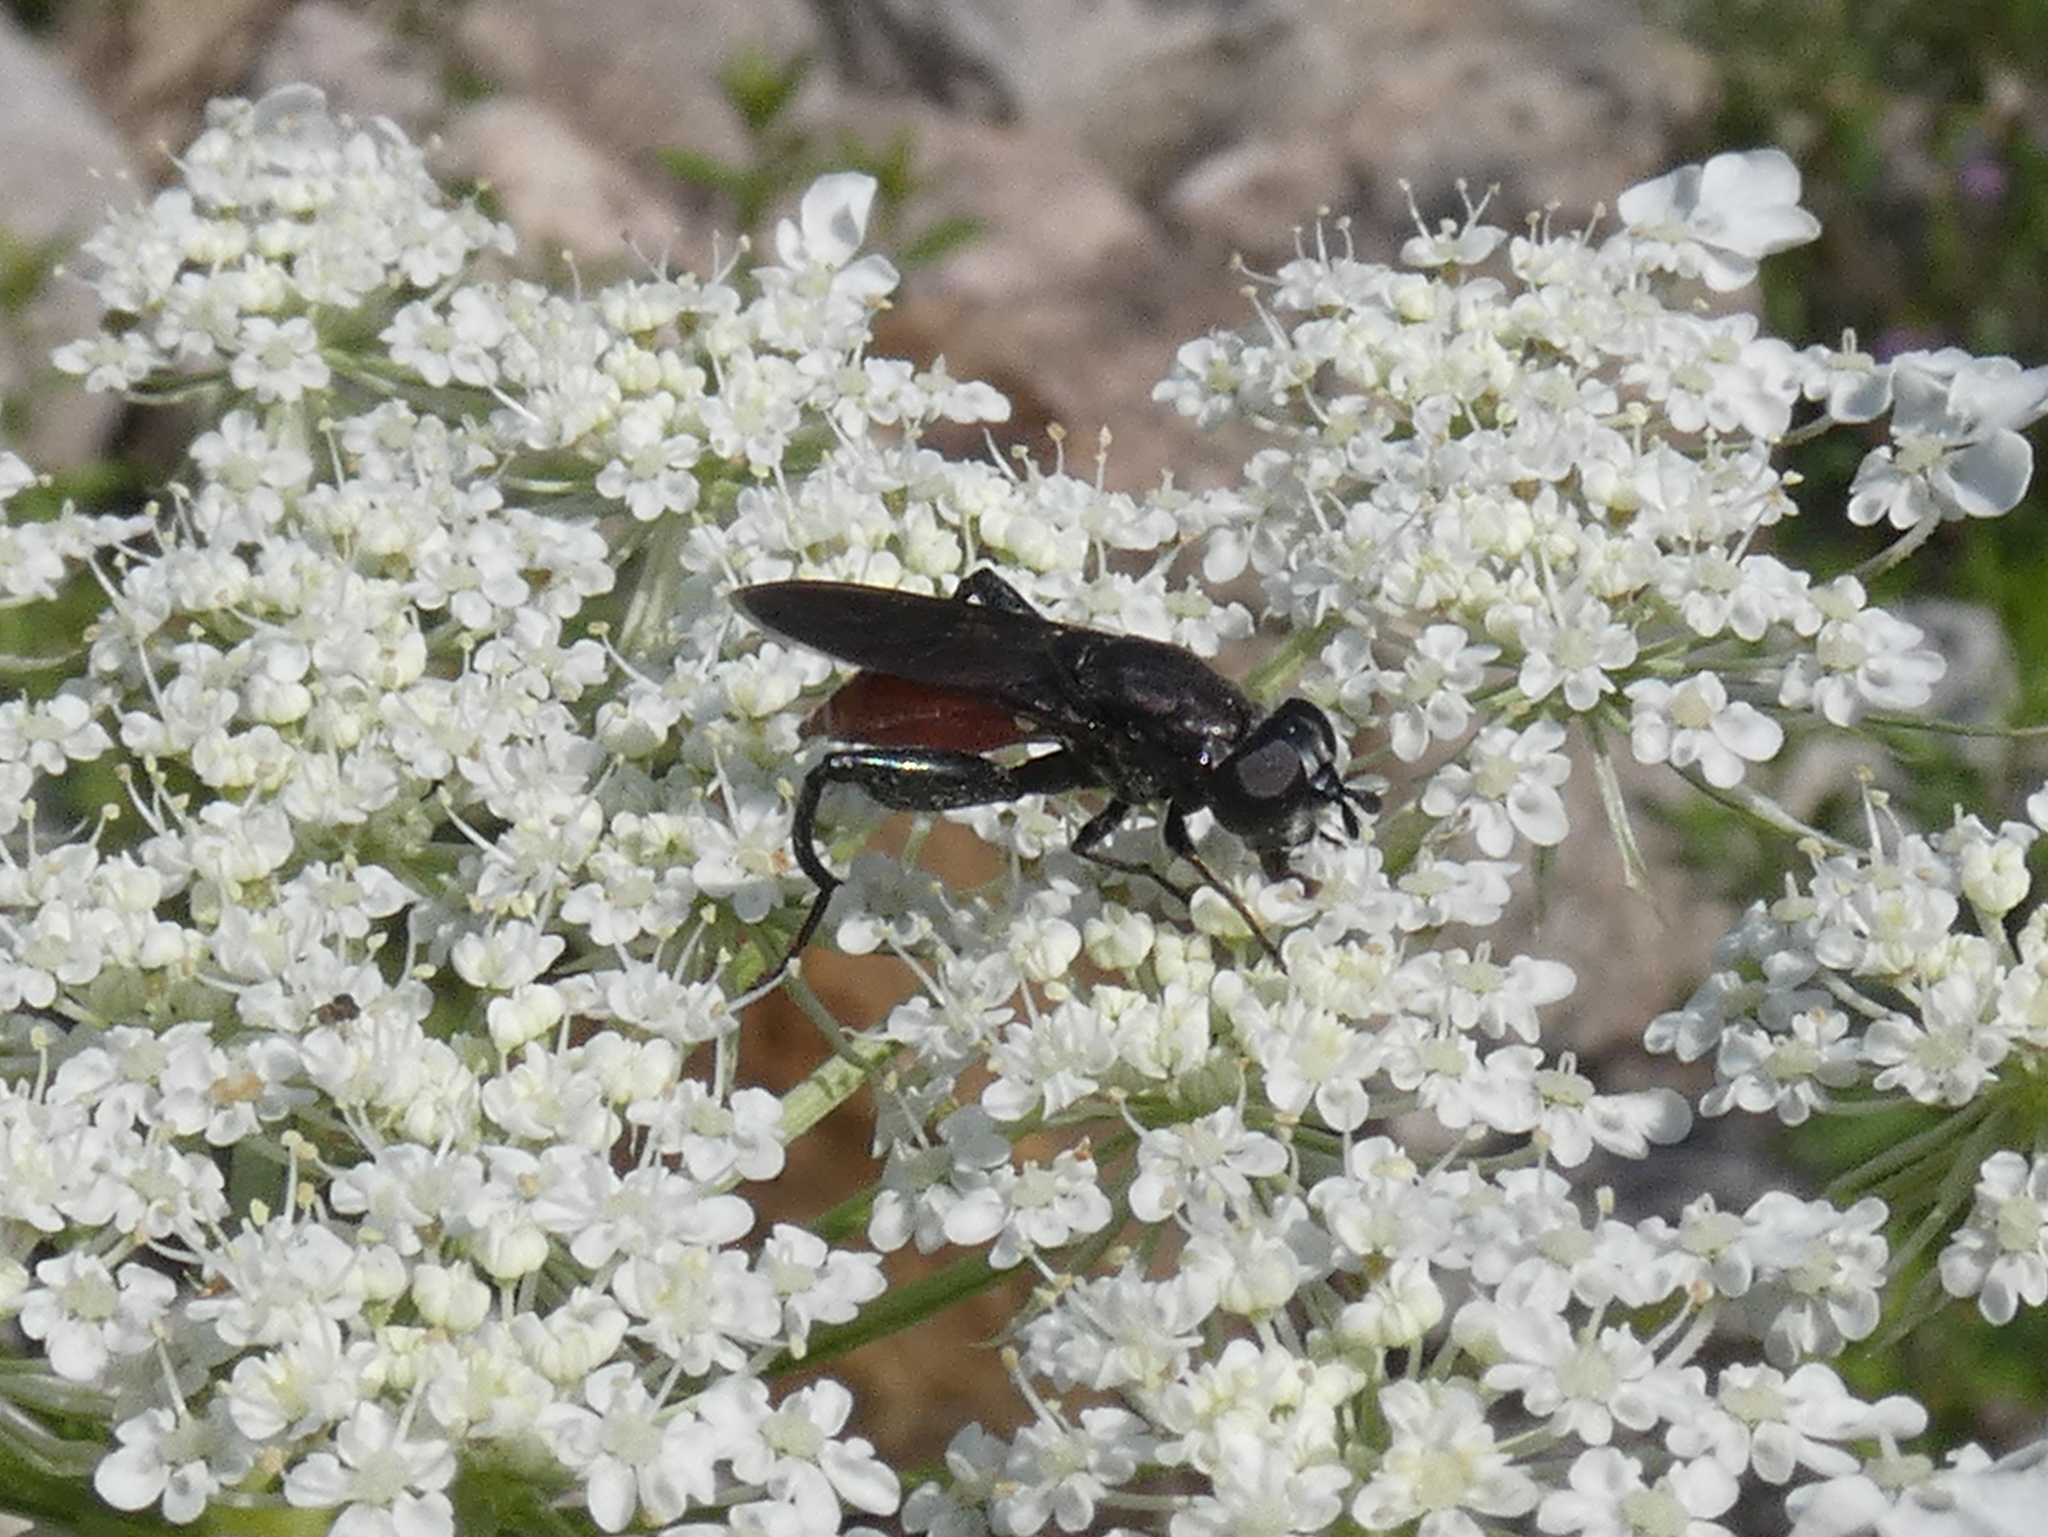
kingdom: Animalia
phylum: Arthropoda
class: Insecta
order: Diptera
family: Syrphidae
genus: Chalcosyrphus
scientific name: Chalcosyrphus piger
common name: Short-haired leafwalker
